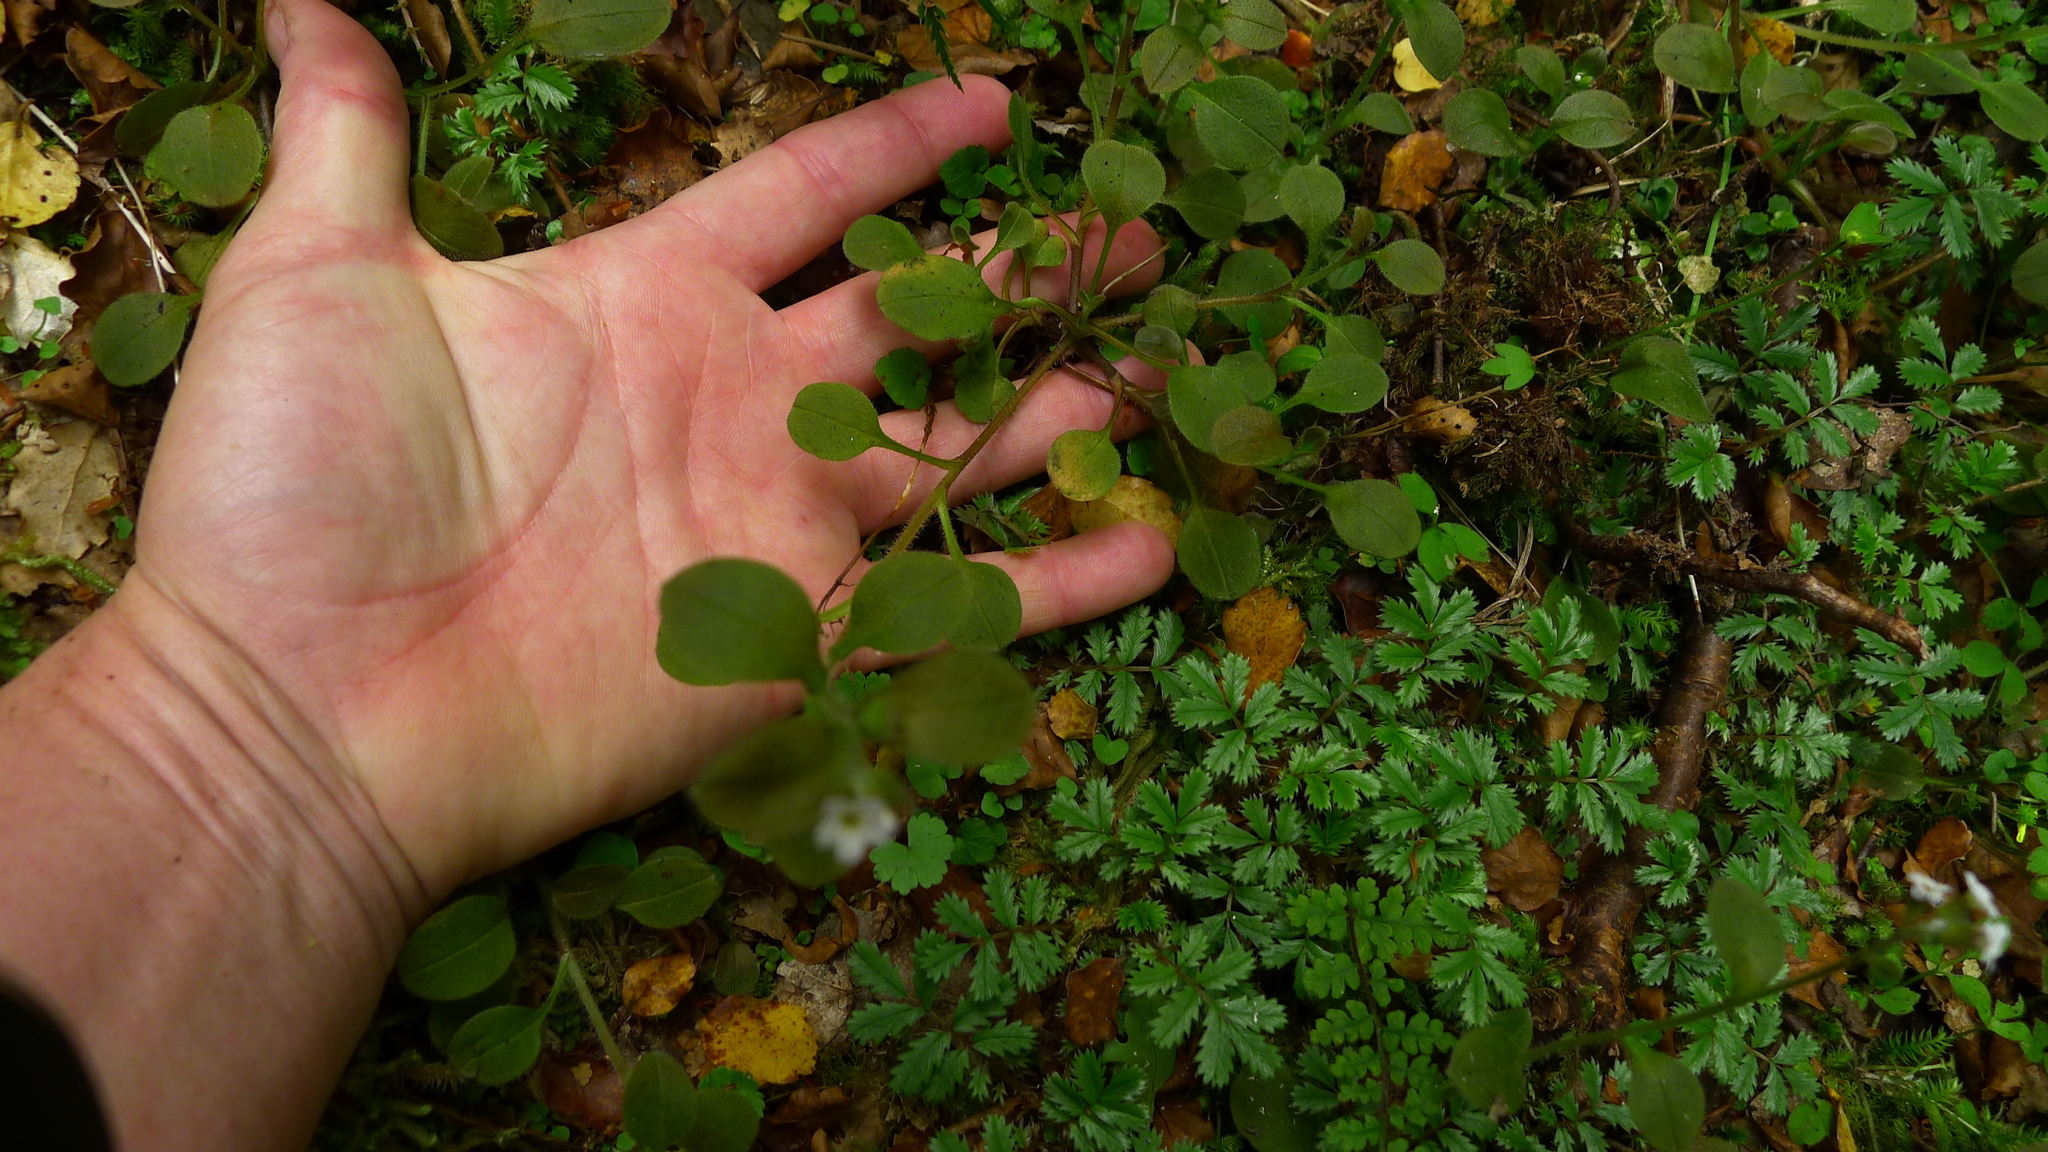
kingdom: Plantae
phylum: Tracheophyta
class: Magnoliopsida
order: Boraginales
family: Boraginaceae
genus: Myosotis
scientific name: Myosotis forsteri
